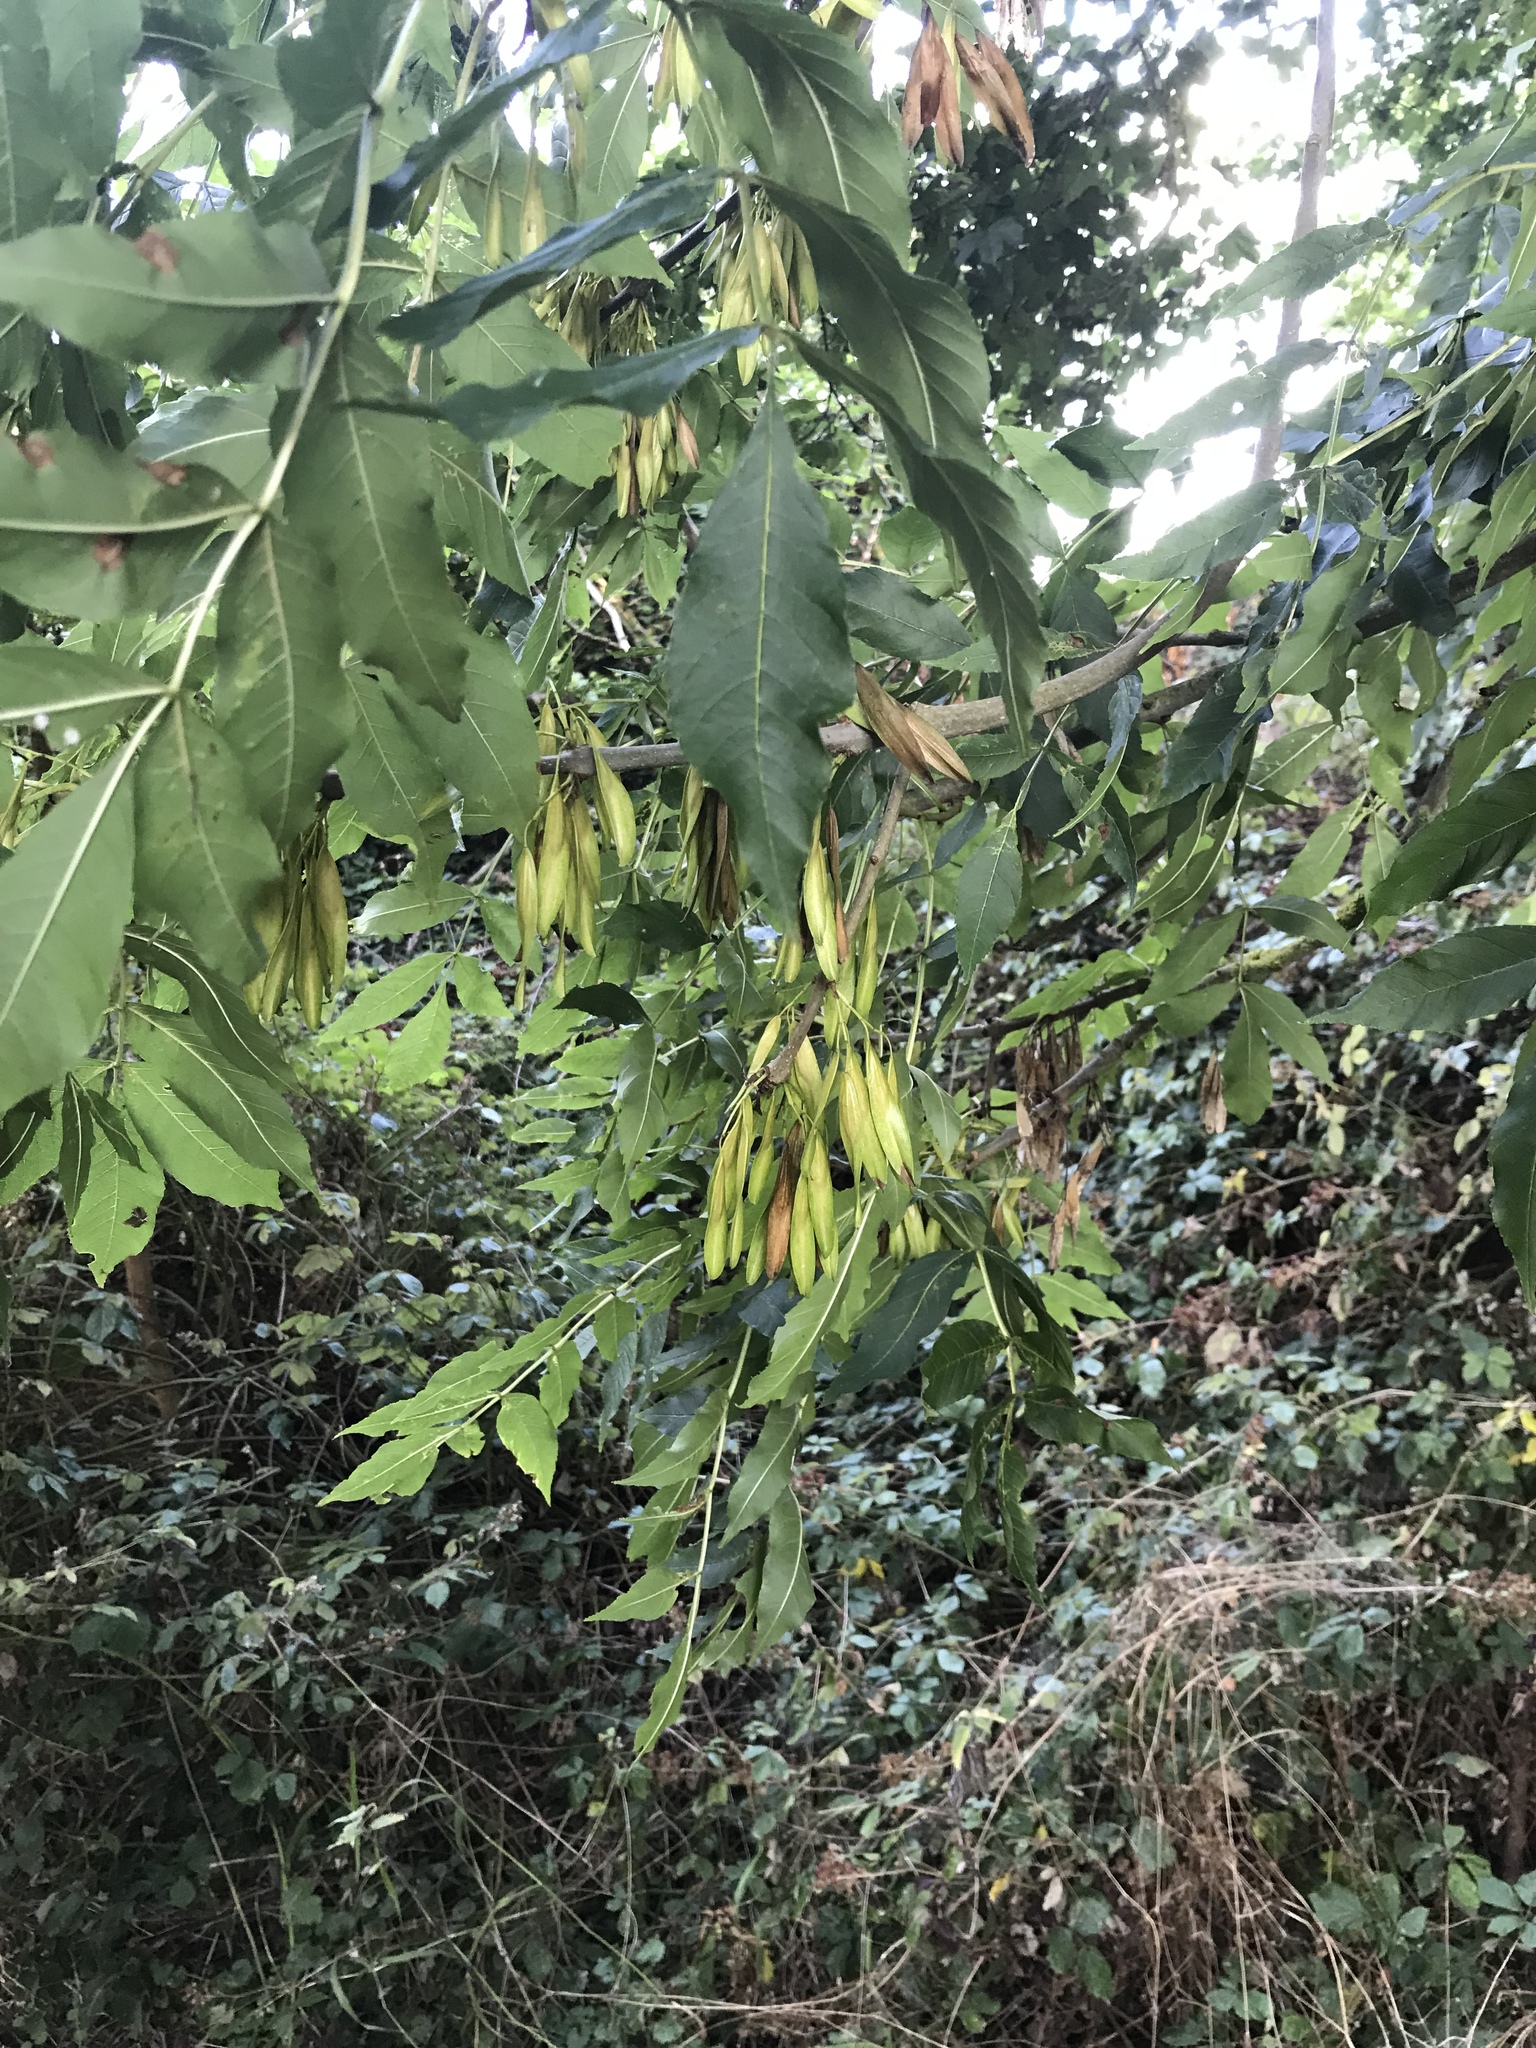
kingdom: Plantae
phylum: Tracheophyta
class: Magnoliopsida
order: Lamiales
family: Oleaceae
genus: Fraxinus
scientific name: Fraxinus excelsior
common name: European ash
